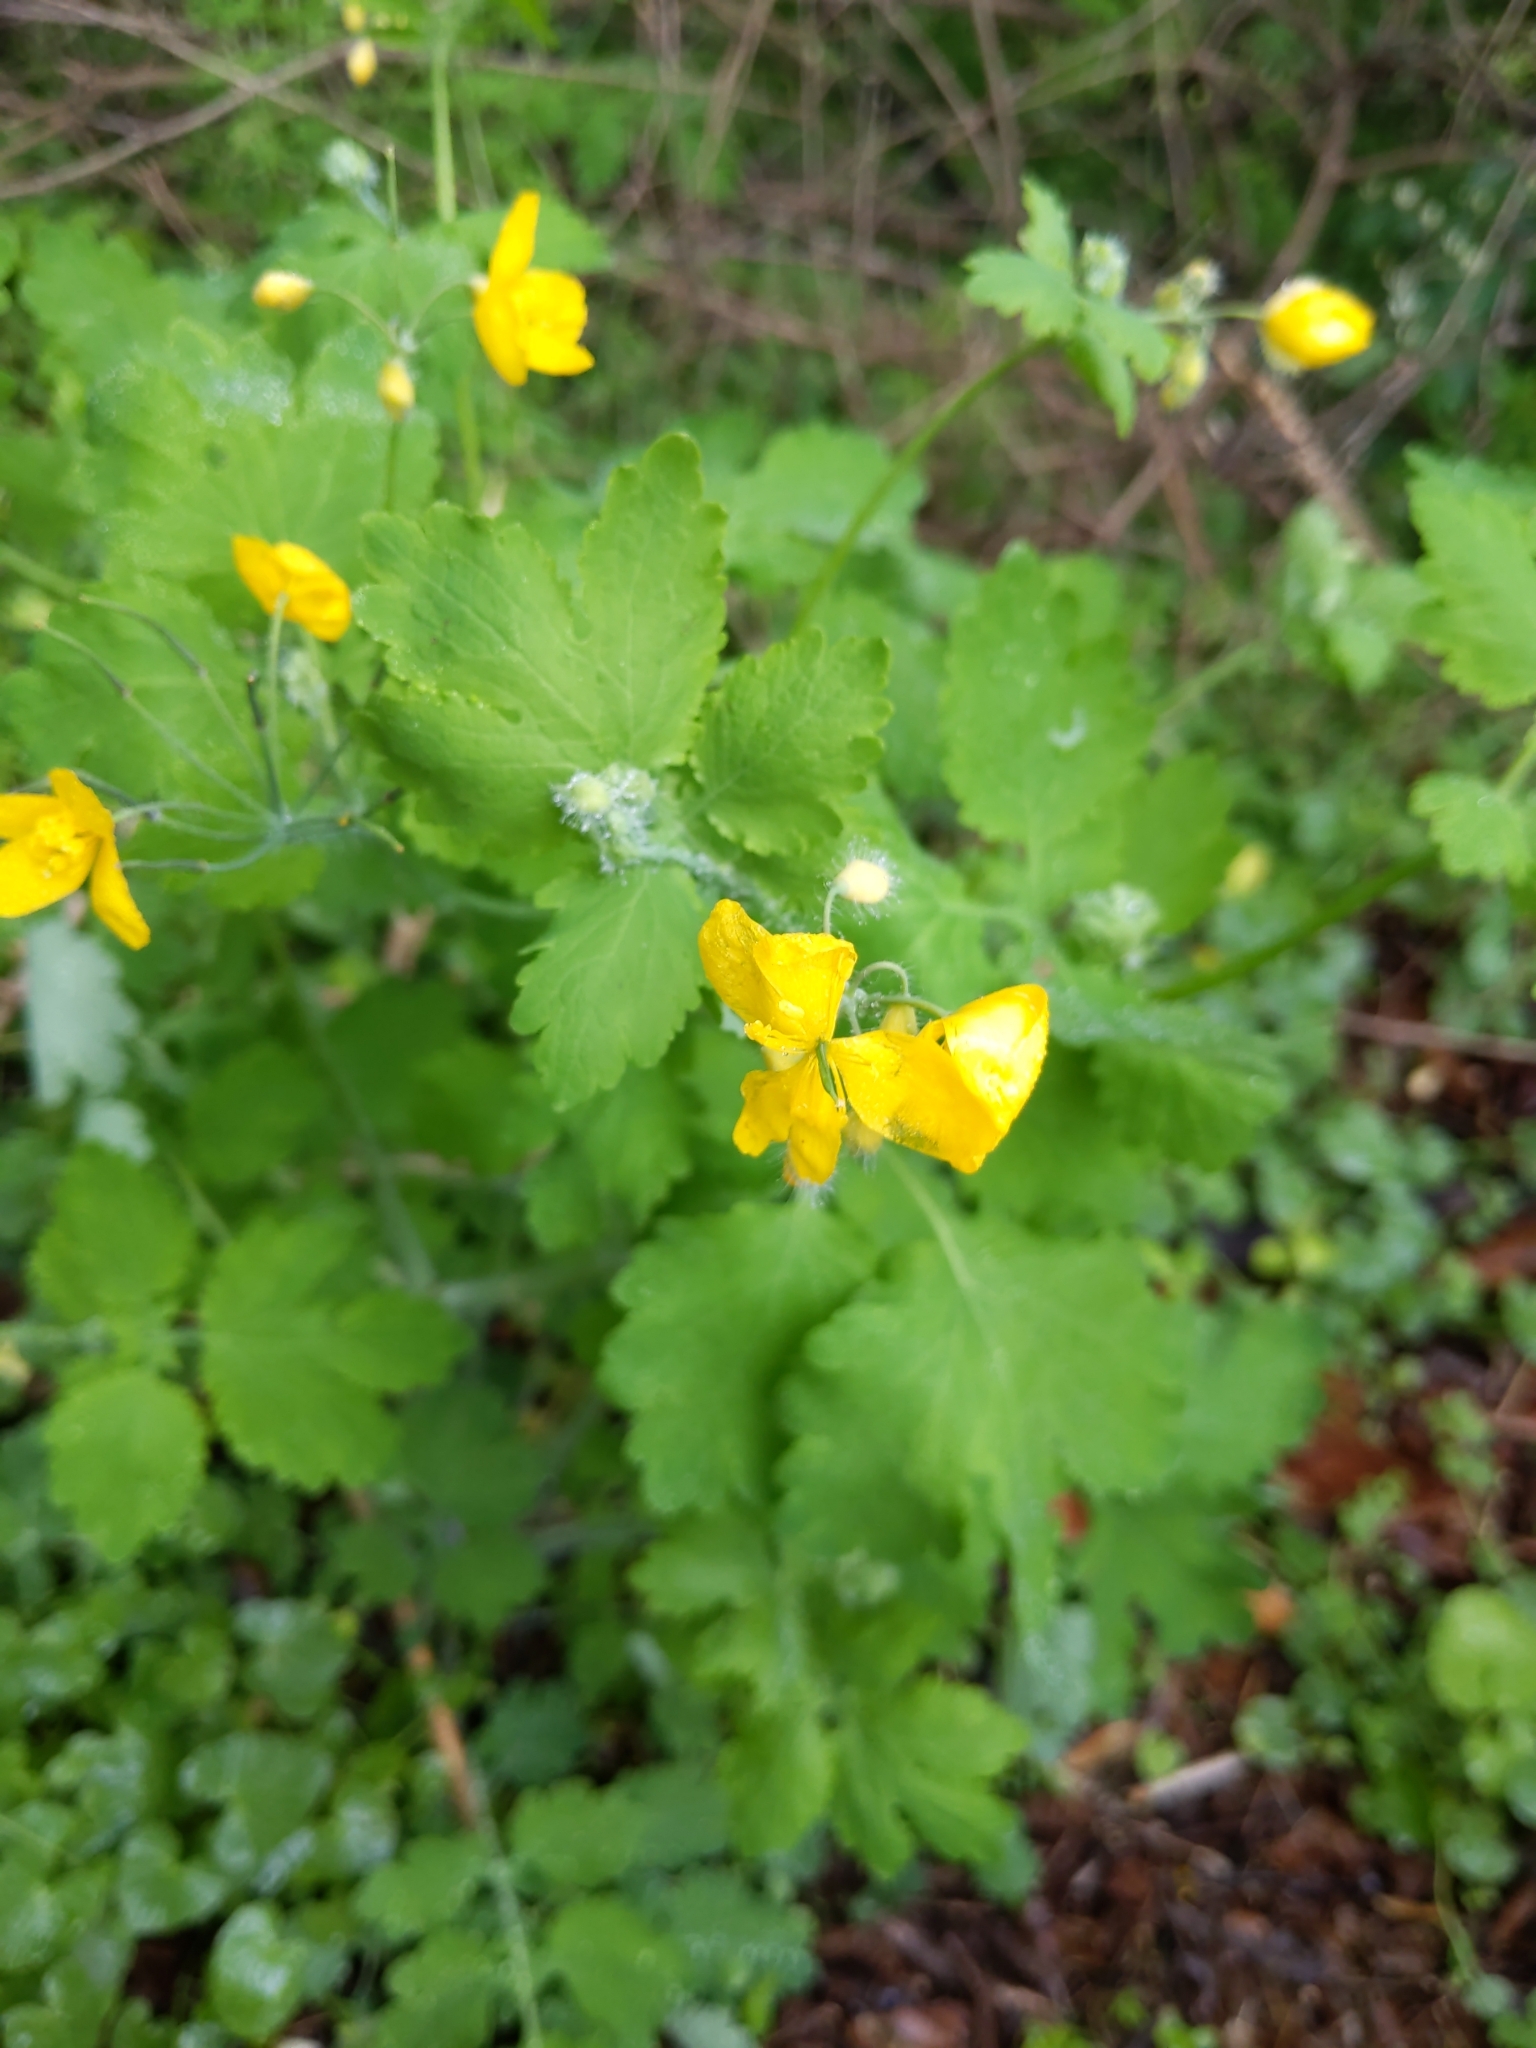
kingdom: Plantae
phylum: Tracheophyta
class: Magnoliopsida
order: Ranunculales
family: Papaveraceae
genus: Chelidonium
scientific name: Chelidonium majus
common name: Greater celandine
